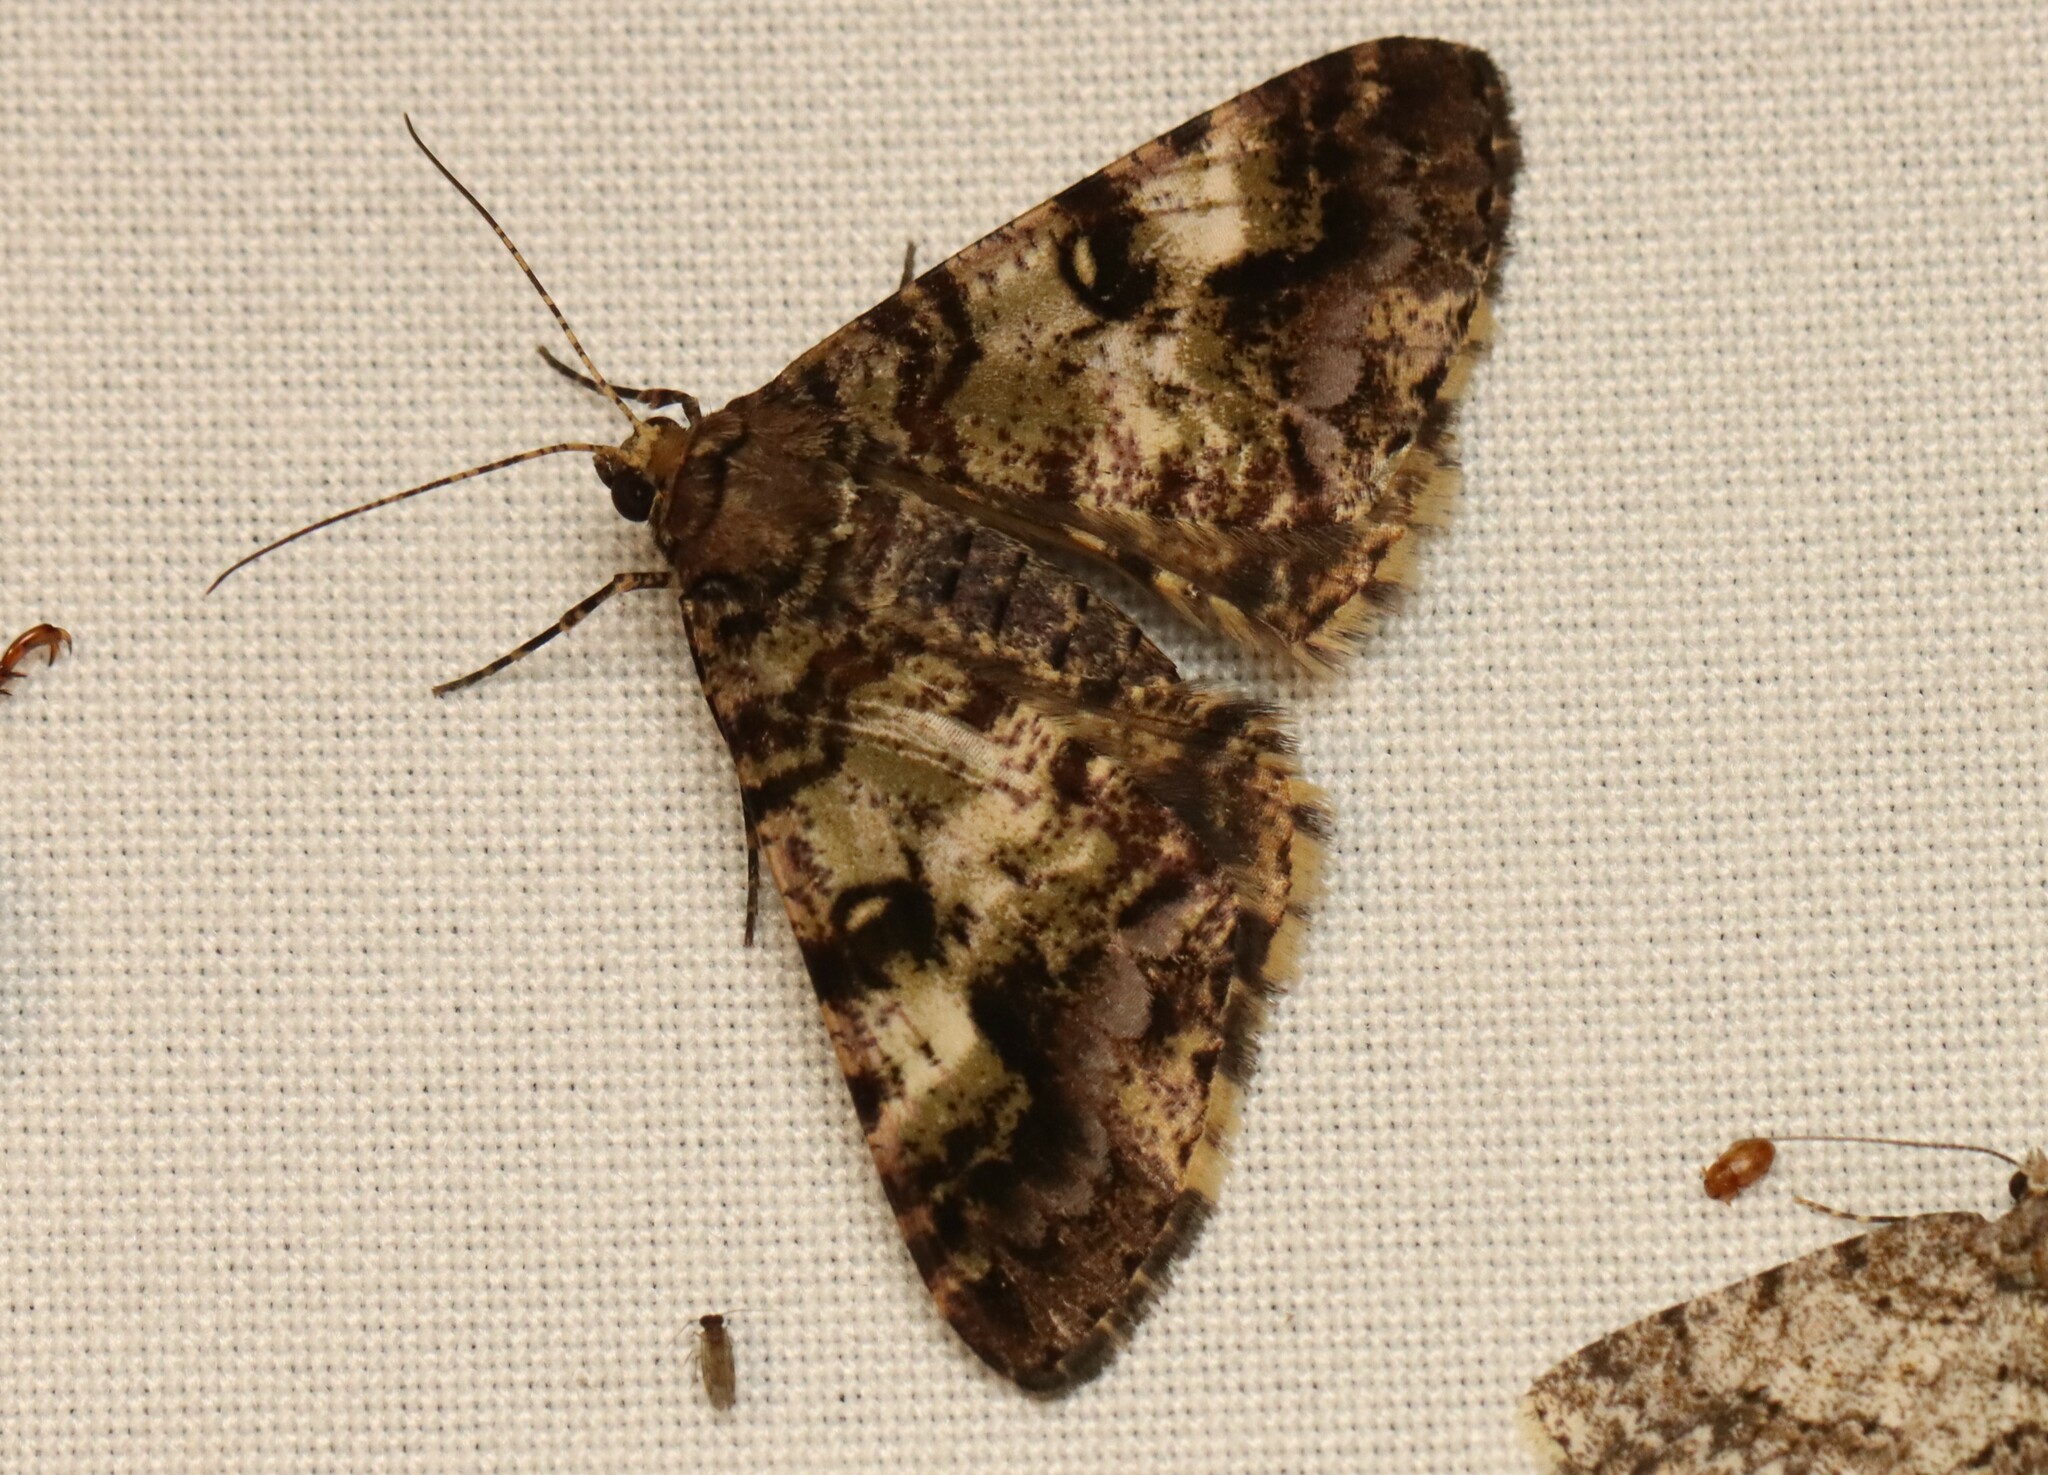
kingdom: Animalia
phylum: Arthropoda
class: Insecta
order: Lepidoptera
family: Geometridae
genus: Gasterocome
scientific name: Gasterocome pannosaria
